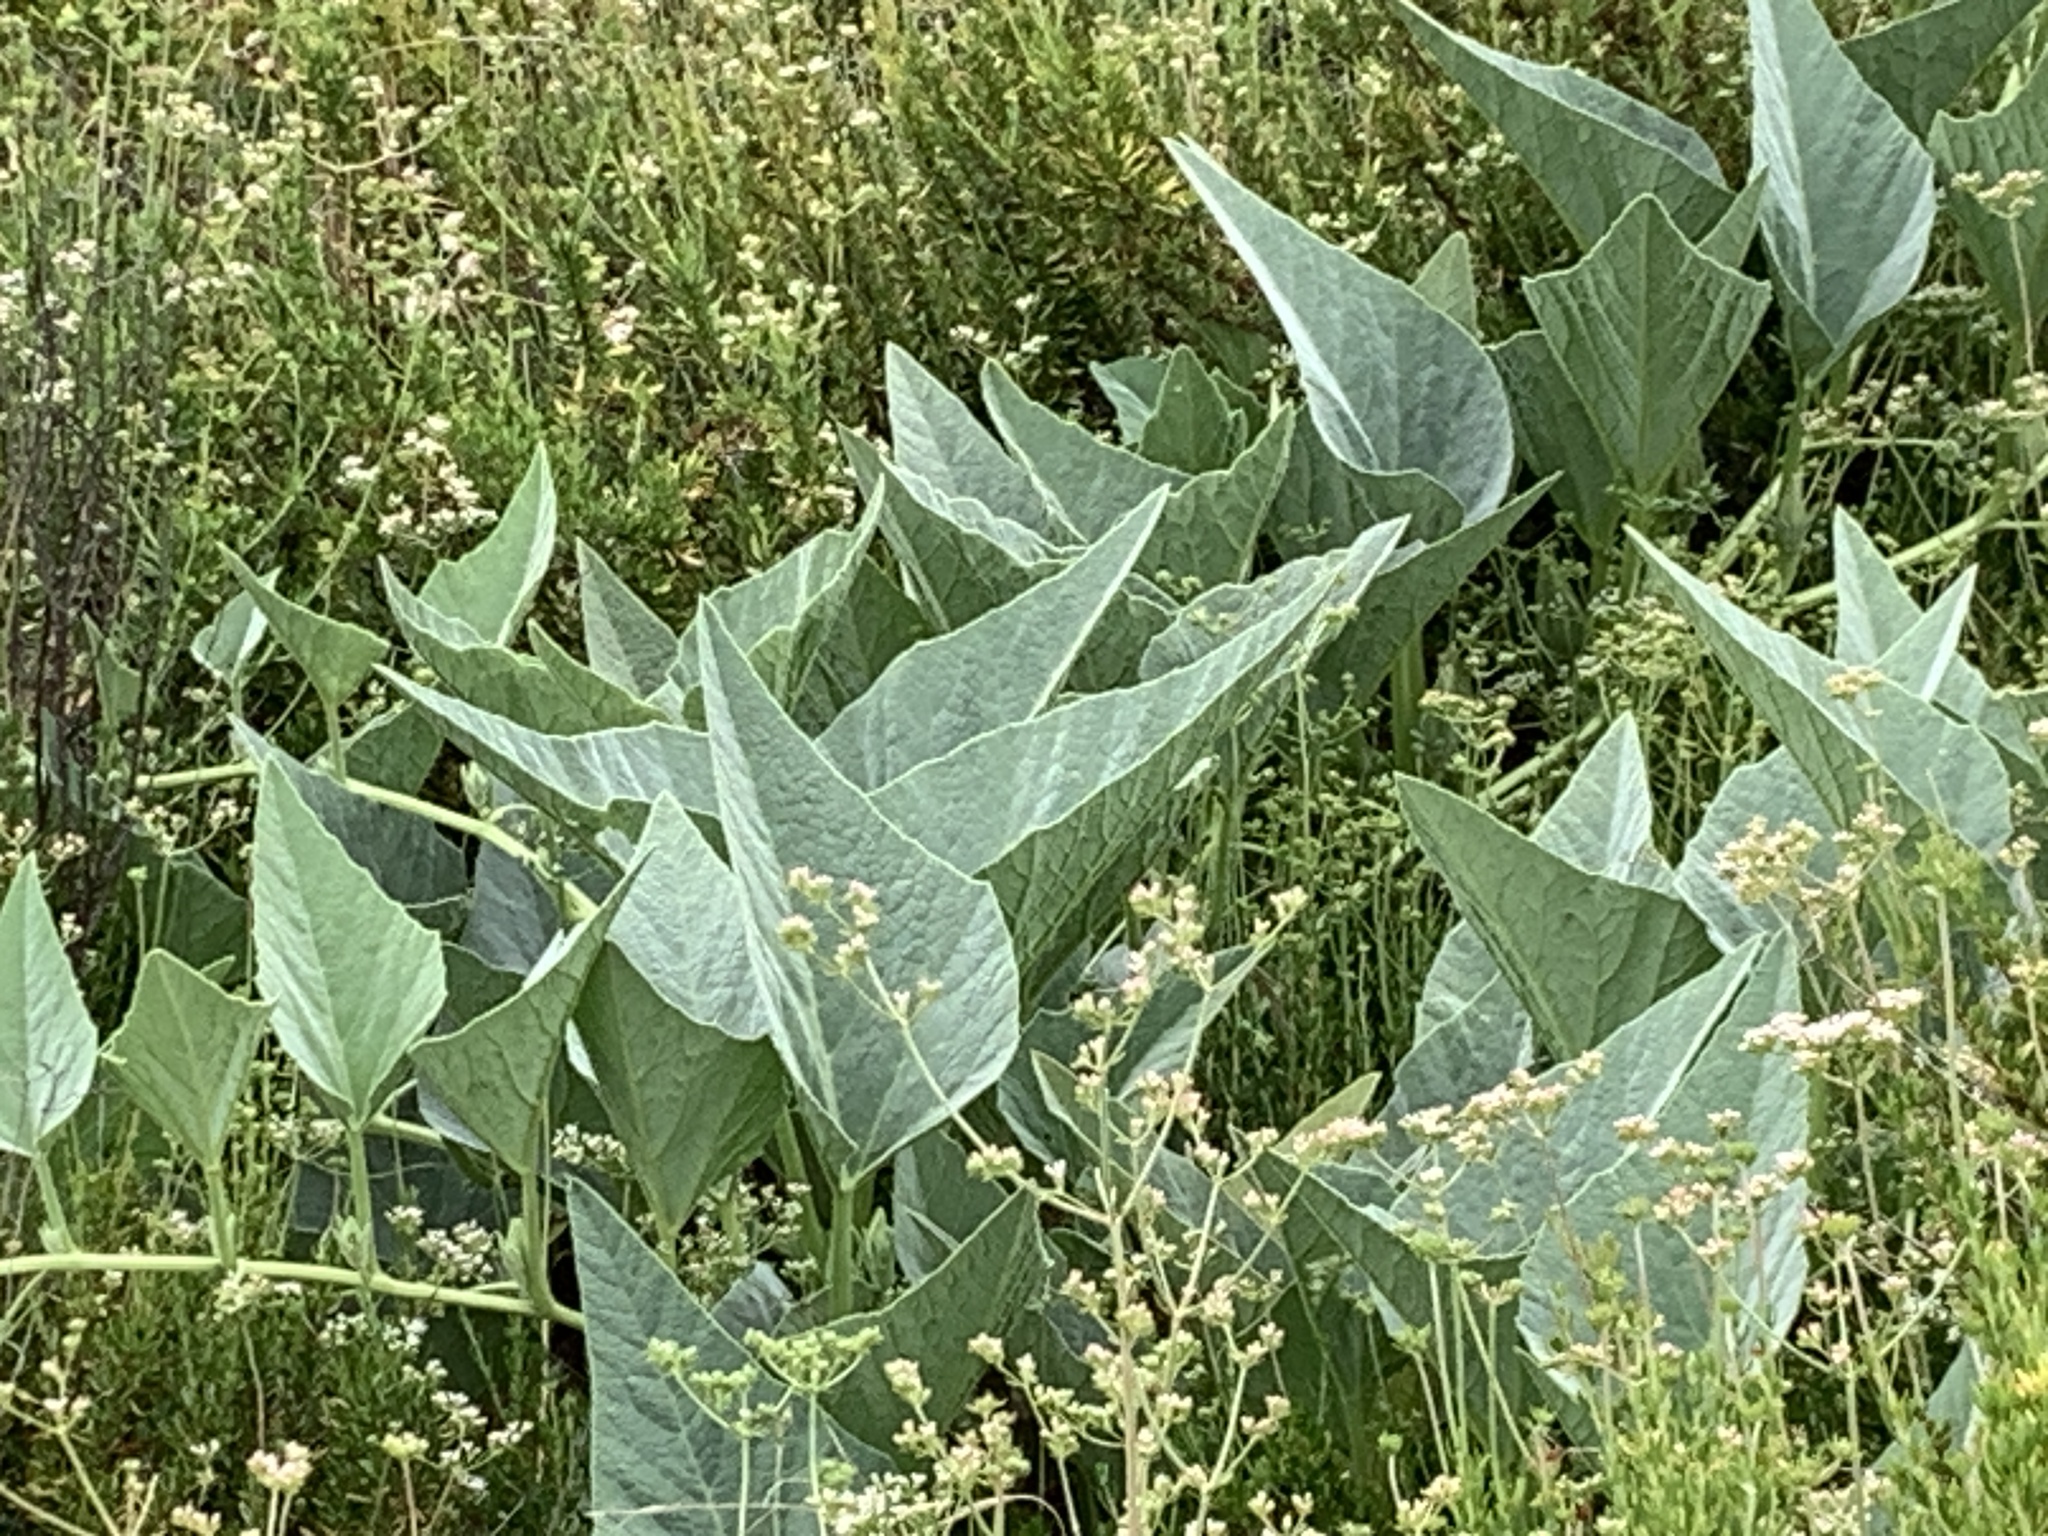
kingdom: Plantae
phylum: Tracheophyta
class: Magnoliopsida
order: Cucurbitales
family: Cucurbitaceae
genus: Cucurbita
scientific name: Cucurbita foetidissima
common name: Buffalo gourd
